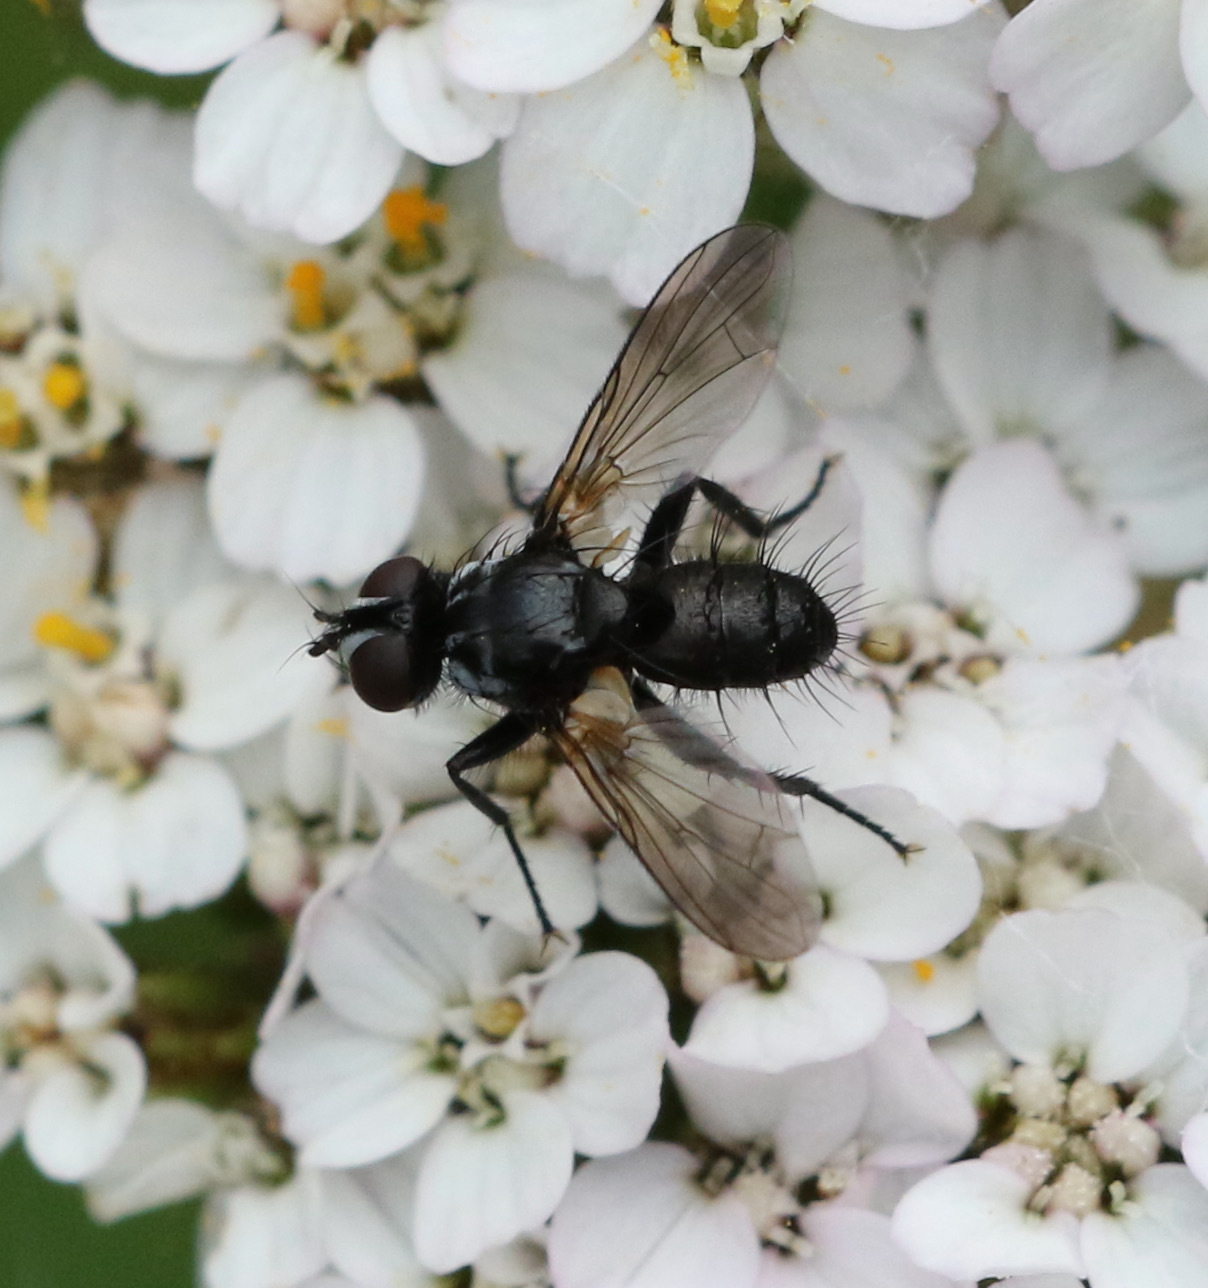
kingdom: Animalia
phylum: Arthropoda
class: Insecta
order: Diptera
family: Tachinidae
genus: Phania
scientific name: Phania funesta
